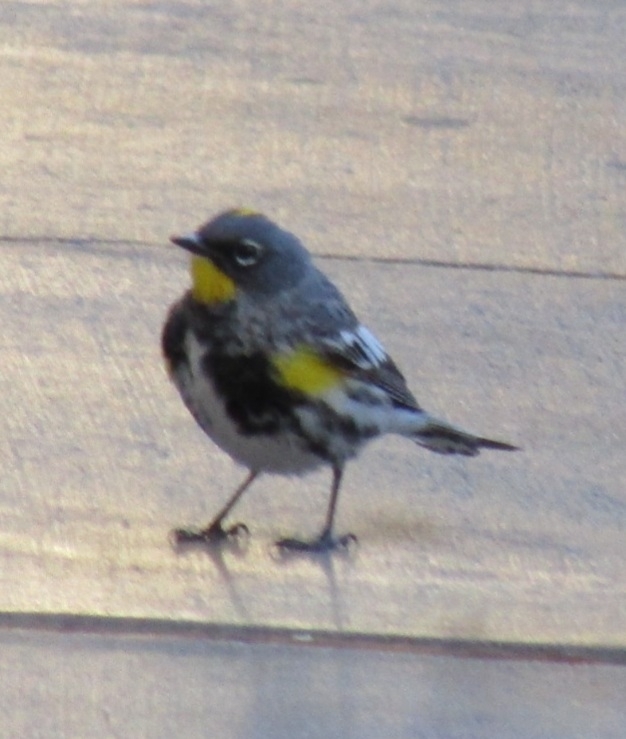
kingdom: Animalia
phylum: Chordata
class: Aves
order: Passeriformes
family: Parulidae
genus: Setophaga
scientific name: Setophaga coronata
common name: Myrtle warbler
